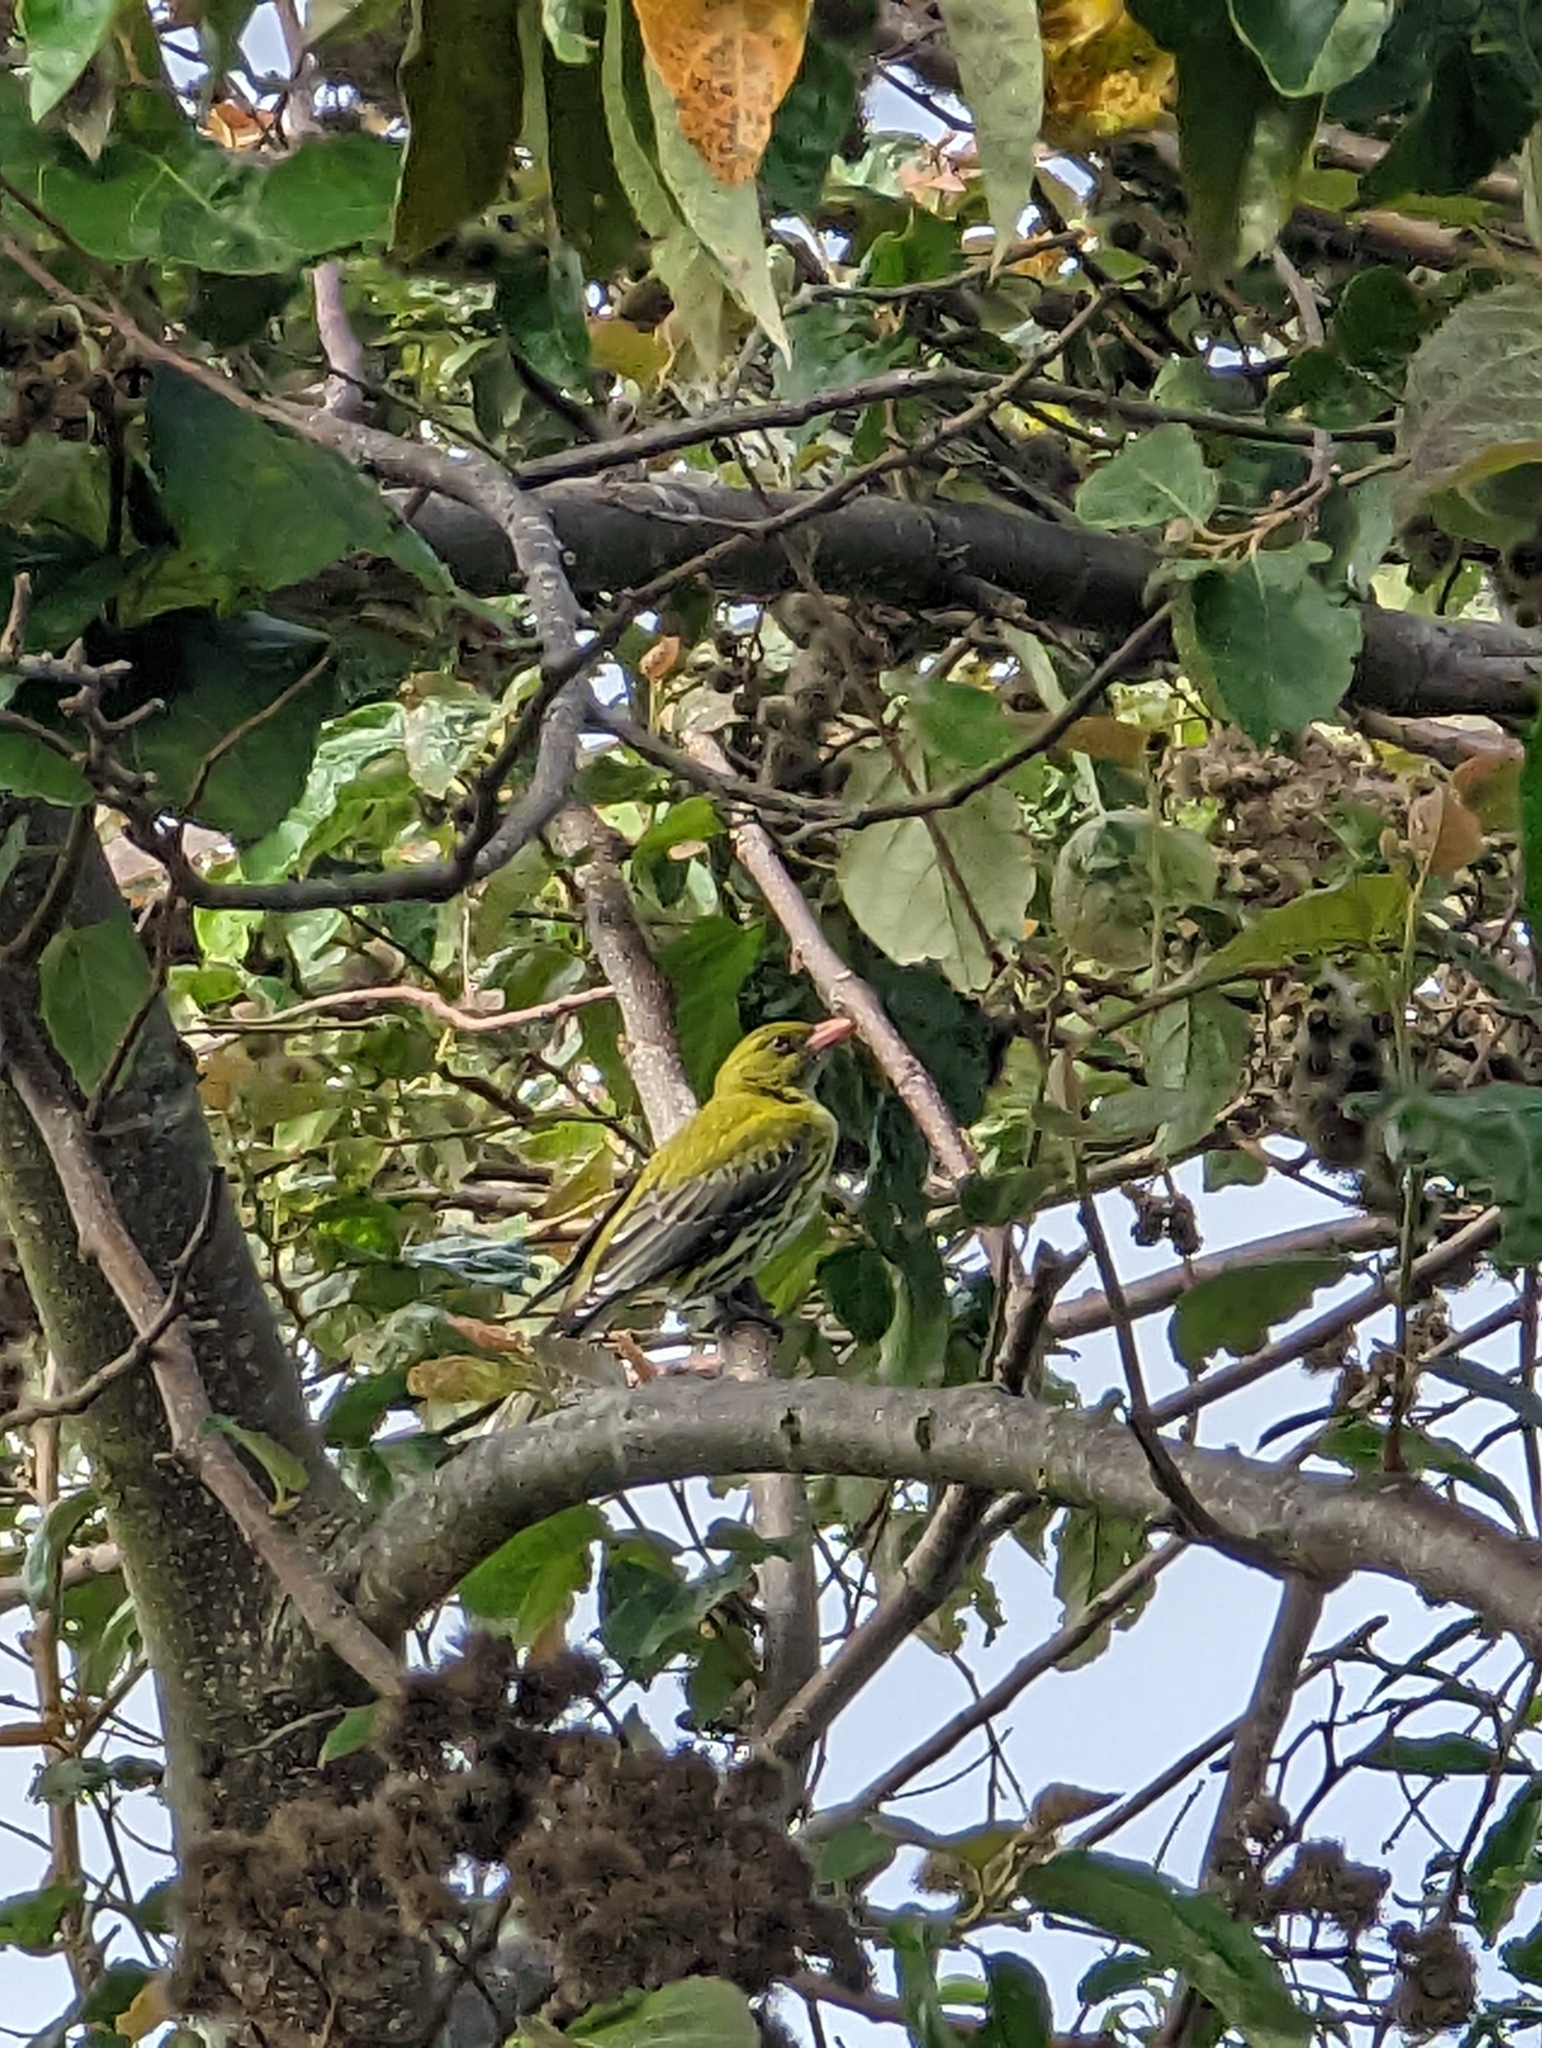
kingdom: Animalia
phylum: Chordata
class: Aves
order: Passeriformes
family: Oriolidae
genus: Oriolus
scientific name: Oriolus sagittatus
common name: Olive-backed oriole
